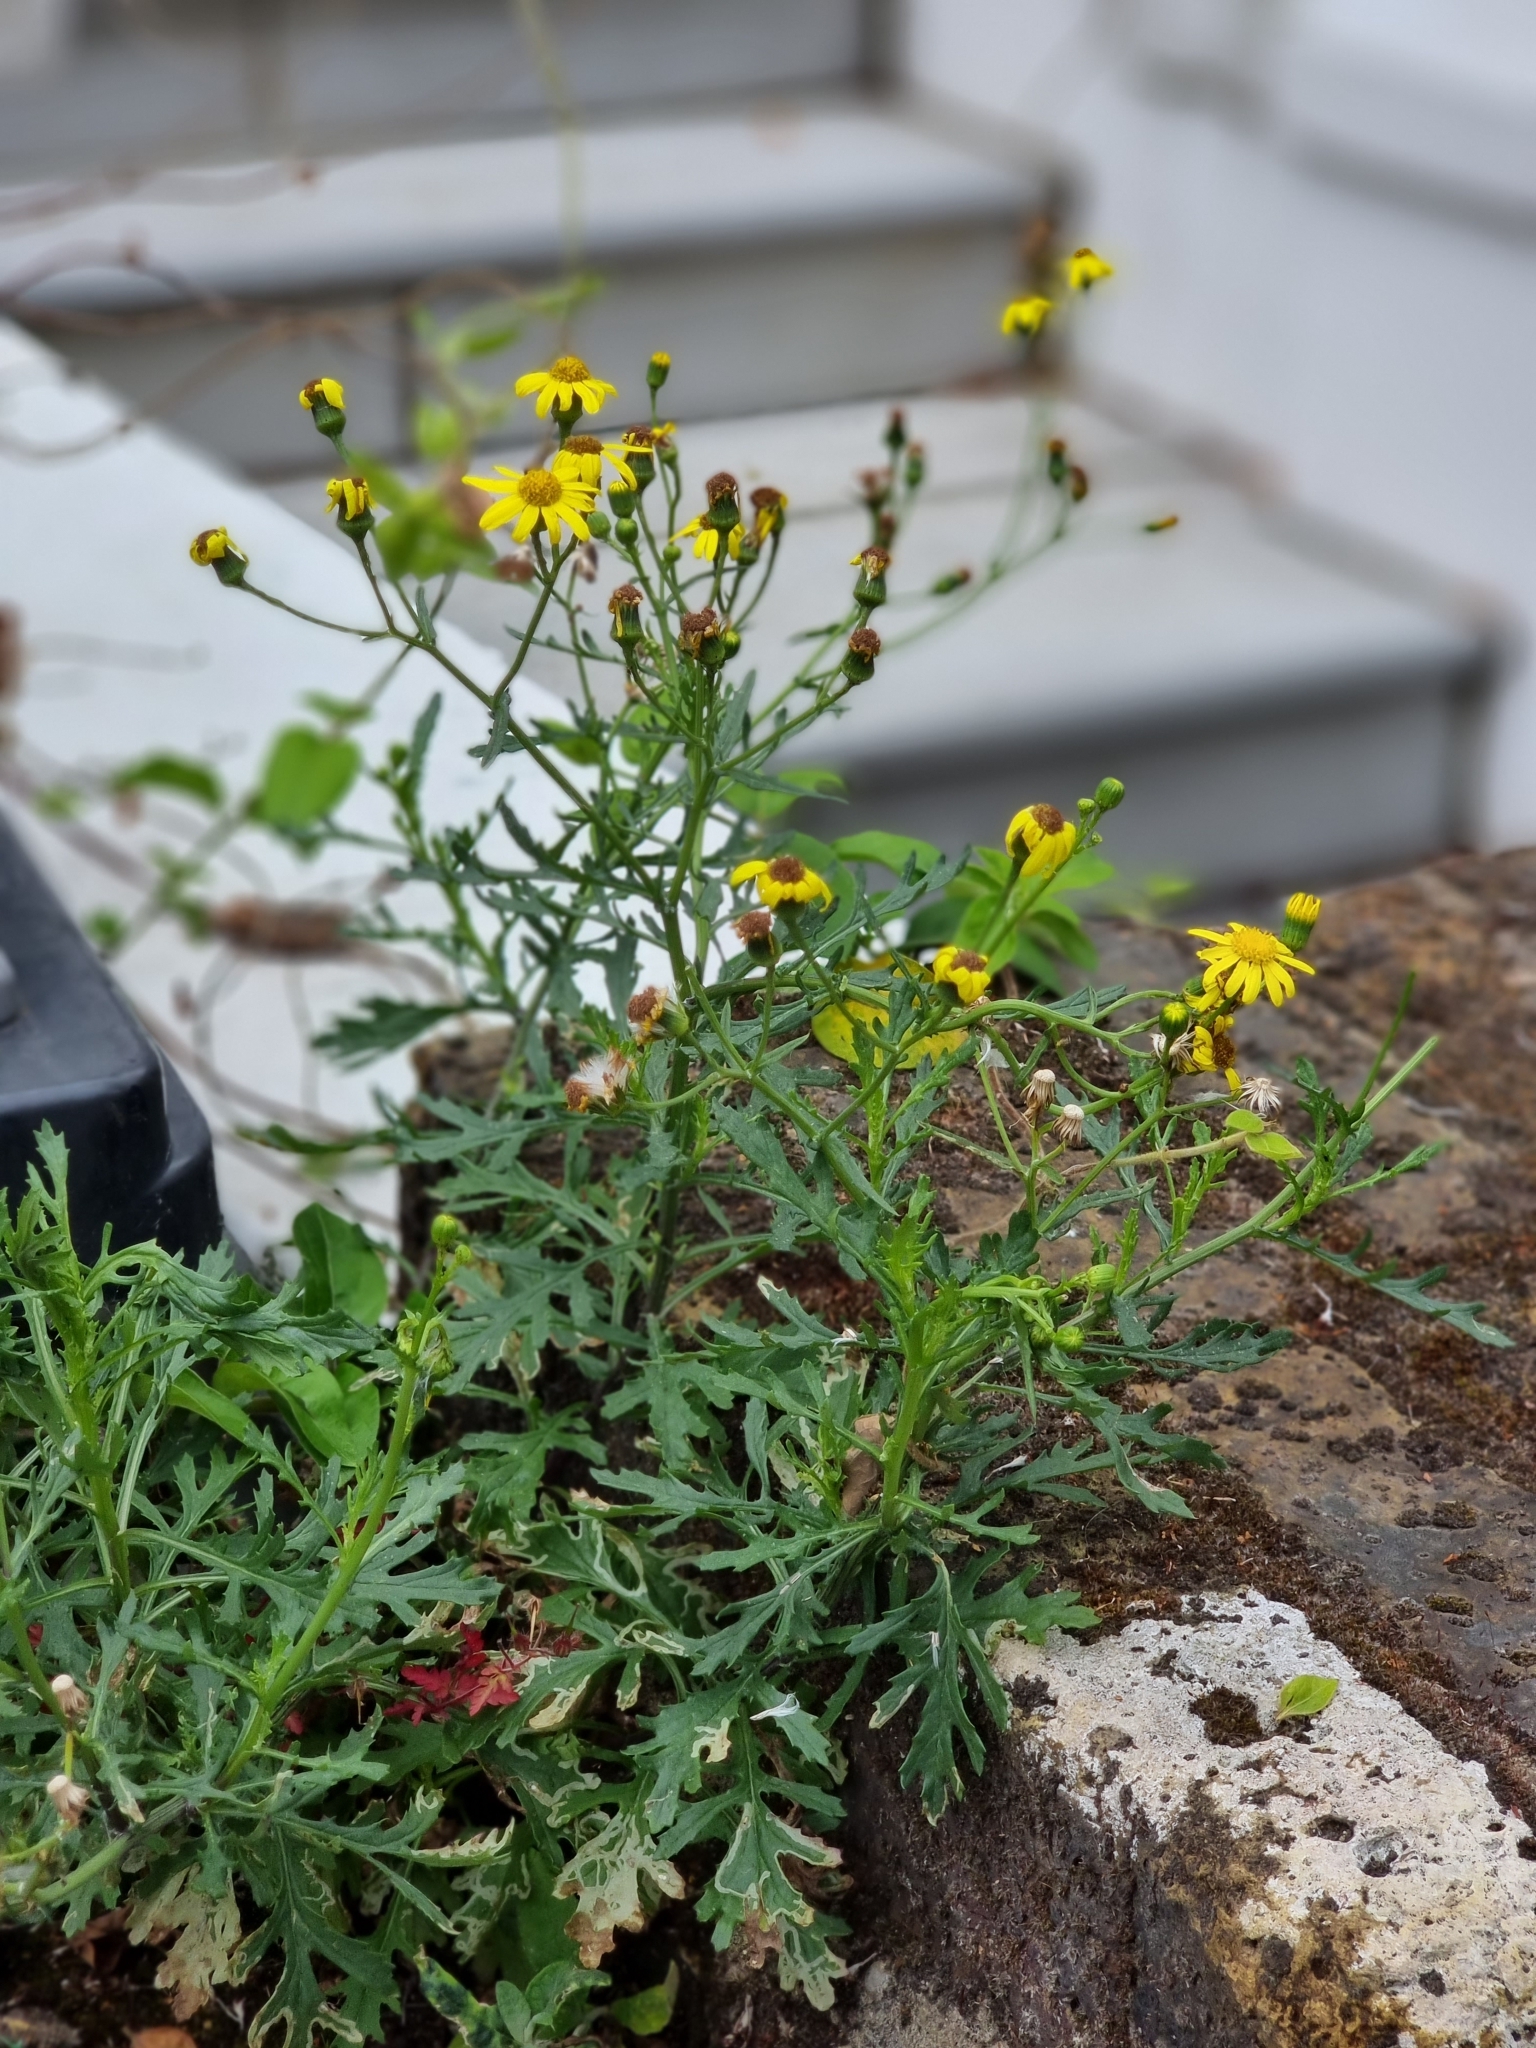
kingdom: Plantae
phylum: Tracheophyta
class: Magnoliopsida
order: Asterales
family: Asteraceae
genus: Senecio
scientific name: Senecio squalidus
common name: Oxford ragwort
